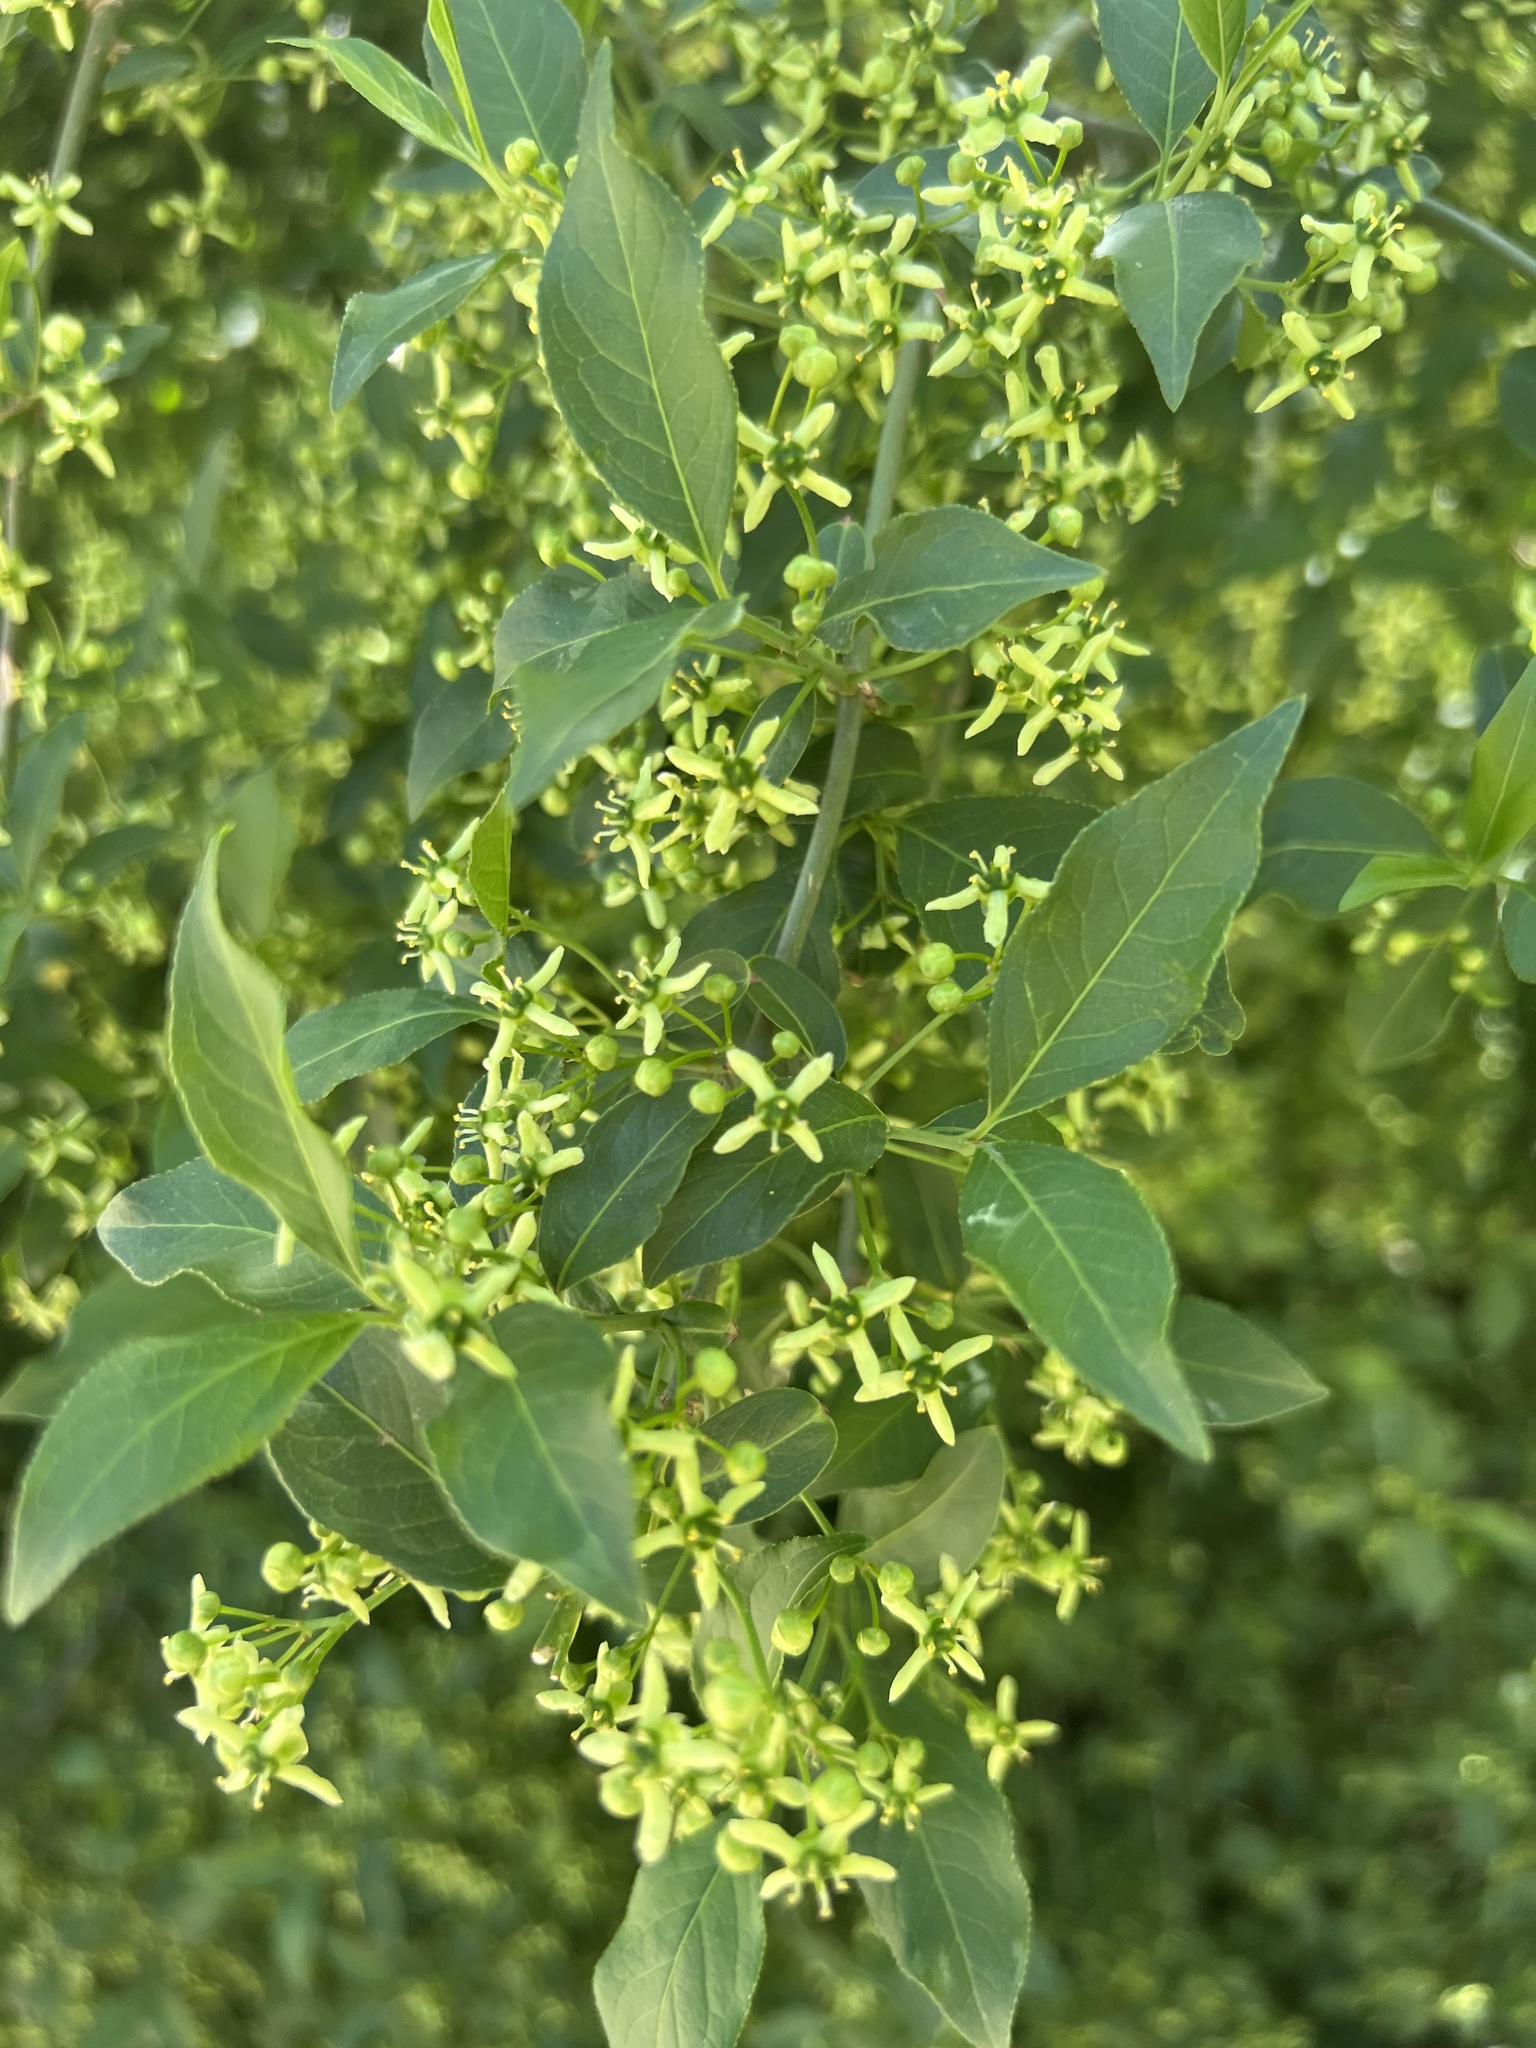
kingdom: Plantae
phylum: Tracheophyta
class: Magnoliopsida
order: Celastrales
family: Celastraceae
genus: Euonymus
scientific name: Euonymus europaeus
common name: Spindle
